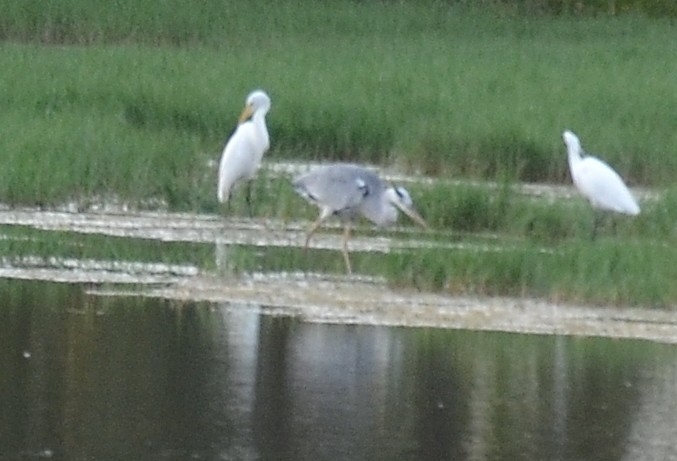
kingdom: Animalia
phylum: Chordata
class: Aves
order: Pelecaniformes
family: Ardeidae
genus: Ardea
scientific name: Ardea cinerea
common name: Grey heron
